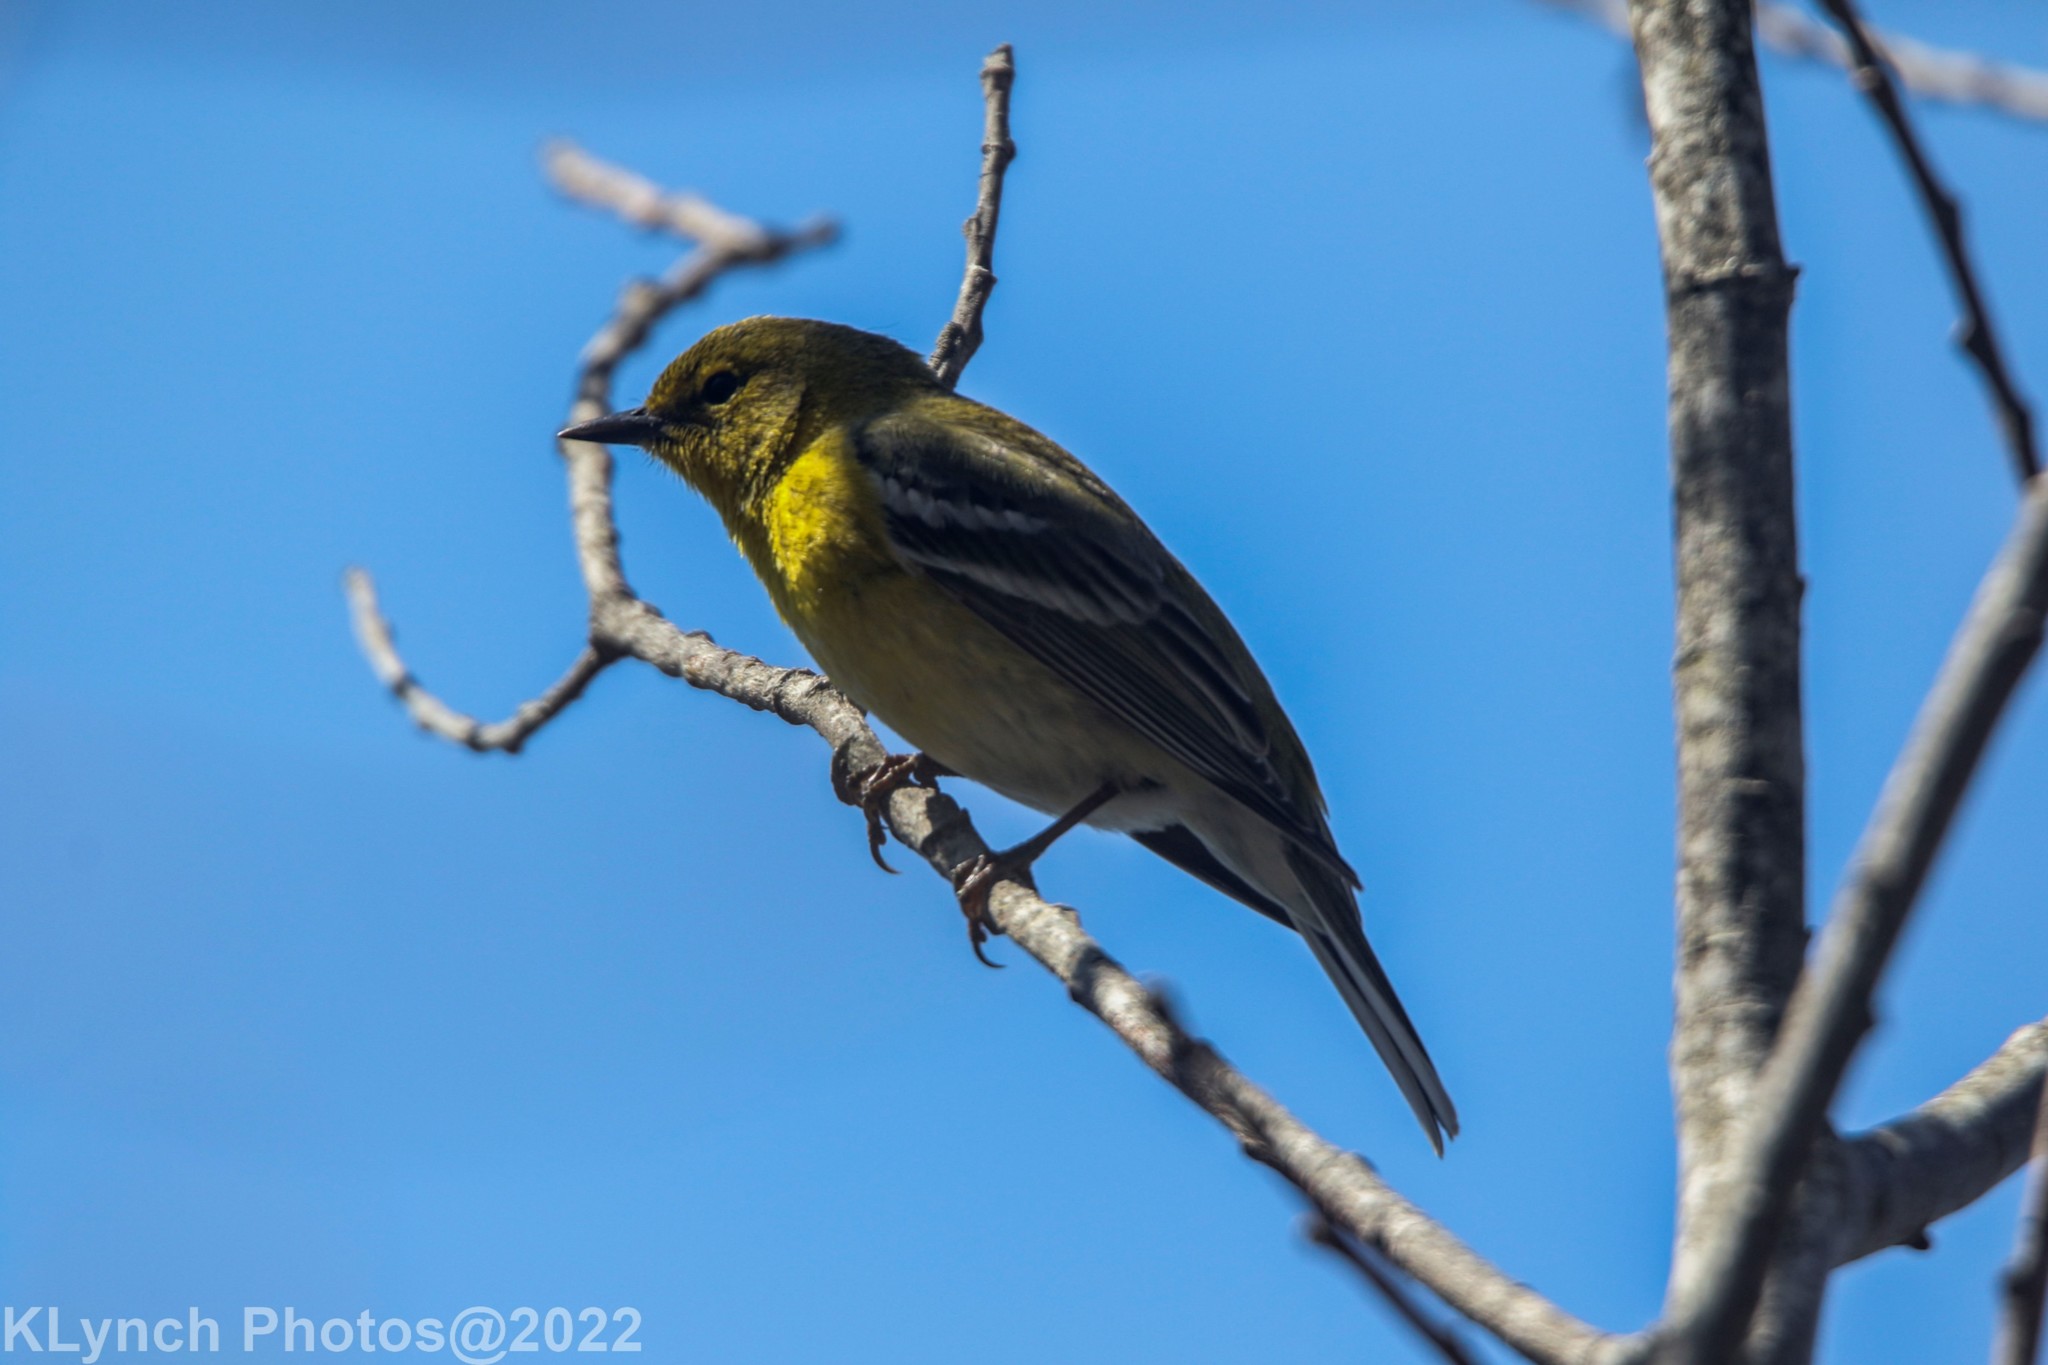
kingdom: Animalia
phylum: Chordata
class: Aves
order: Passeriformes
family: Parulidae
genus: Setophaga
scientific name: Setophaga pinus
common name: Pine warbler
